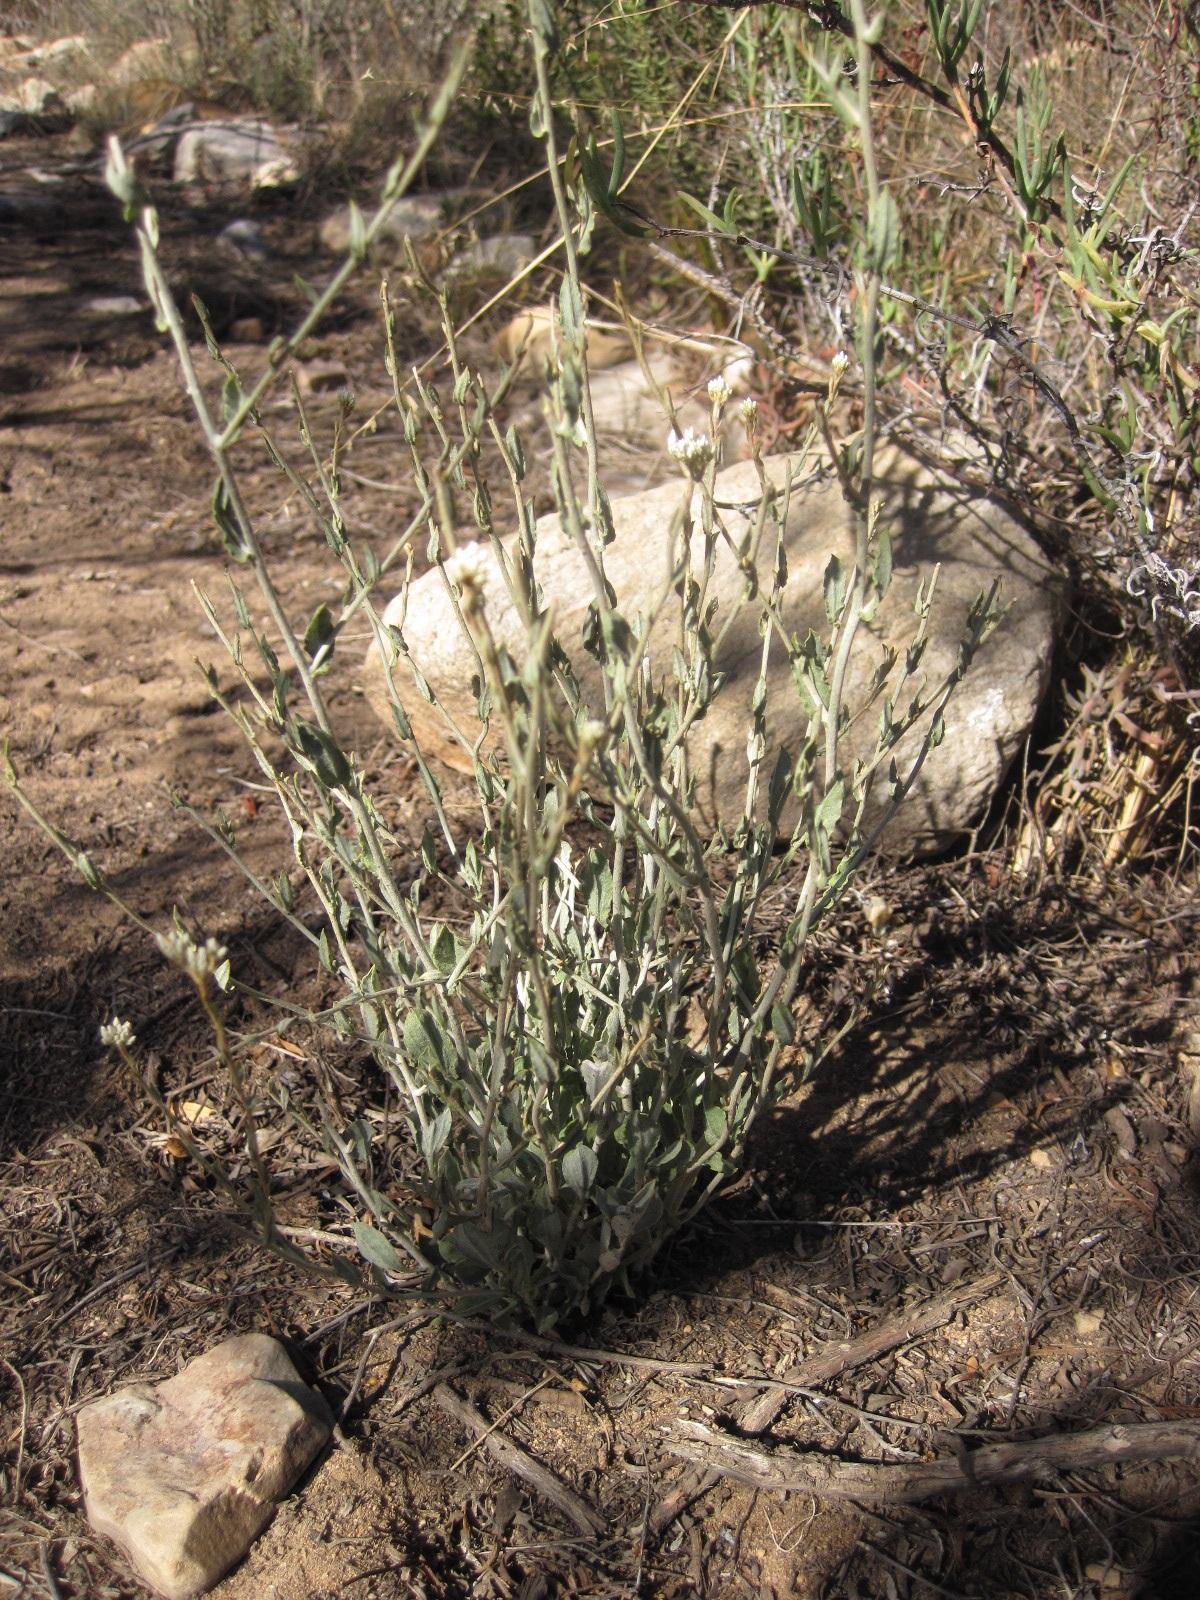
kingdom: Plantae
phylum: Tracheophyta
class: Magnoliopsida
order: Asterales
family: Asteraceae
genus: Helichrysum
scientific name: Helichrysum zeyheri
